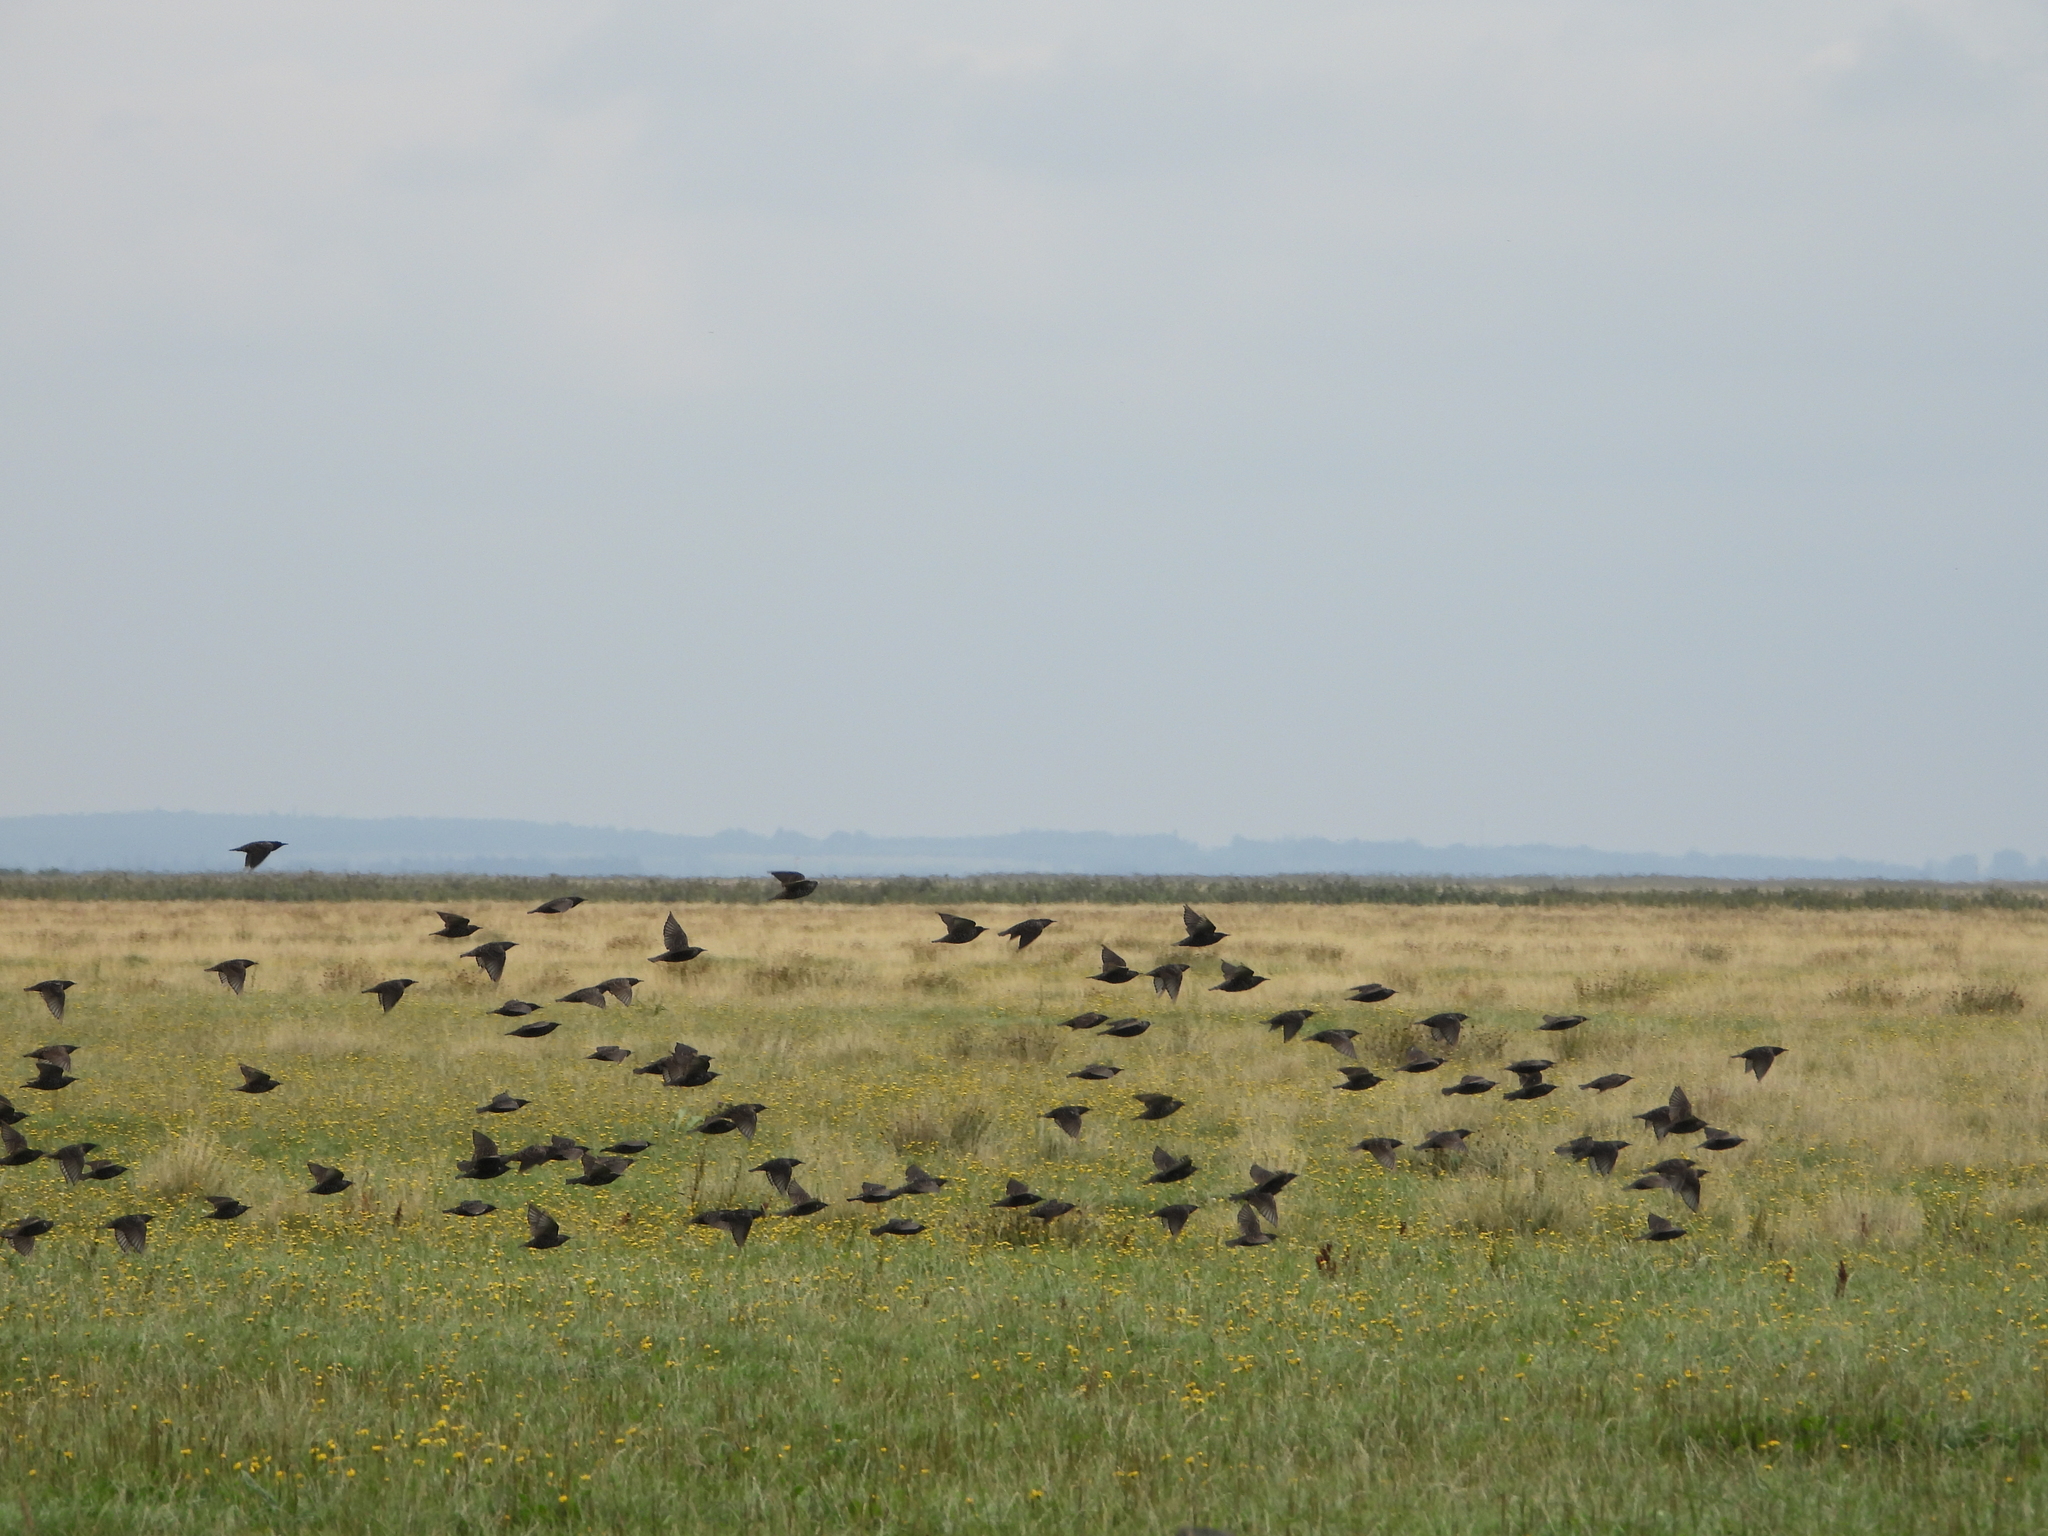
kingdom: Animalia
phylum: Chordata
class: Aves
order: Passeriformes
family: Sturnidae
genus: Sturnus
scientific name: Sturnus vulgaris
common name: Common starling
